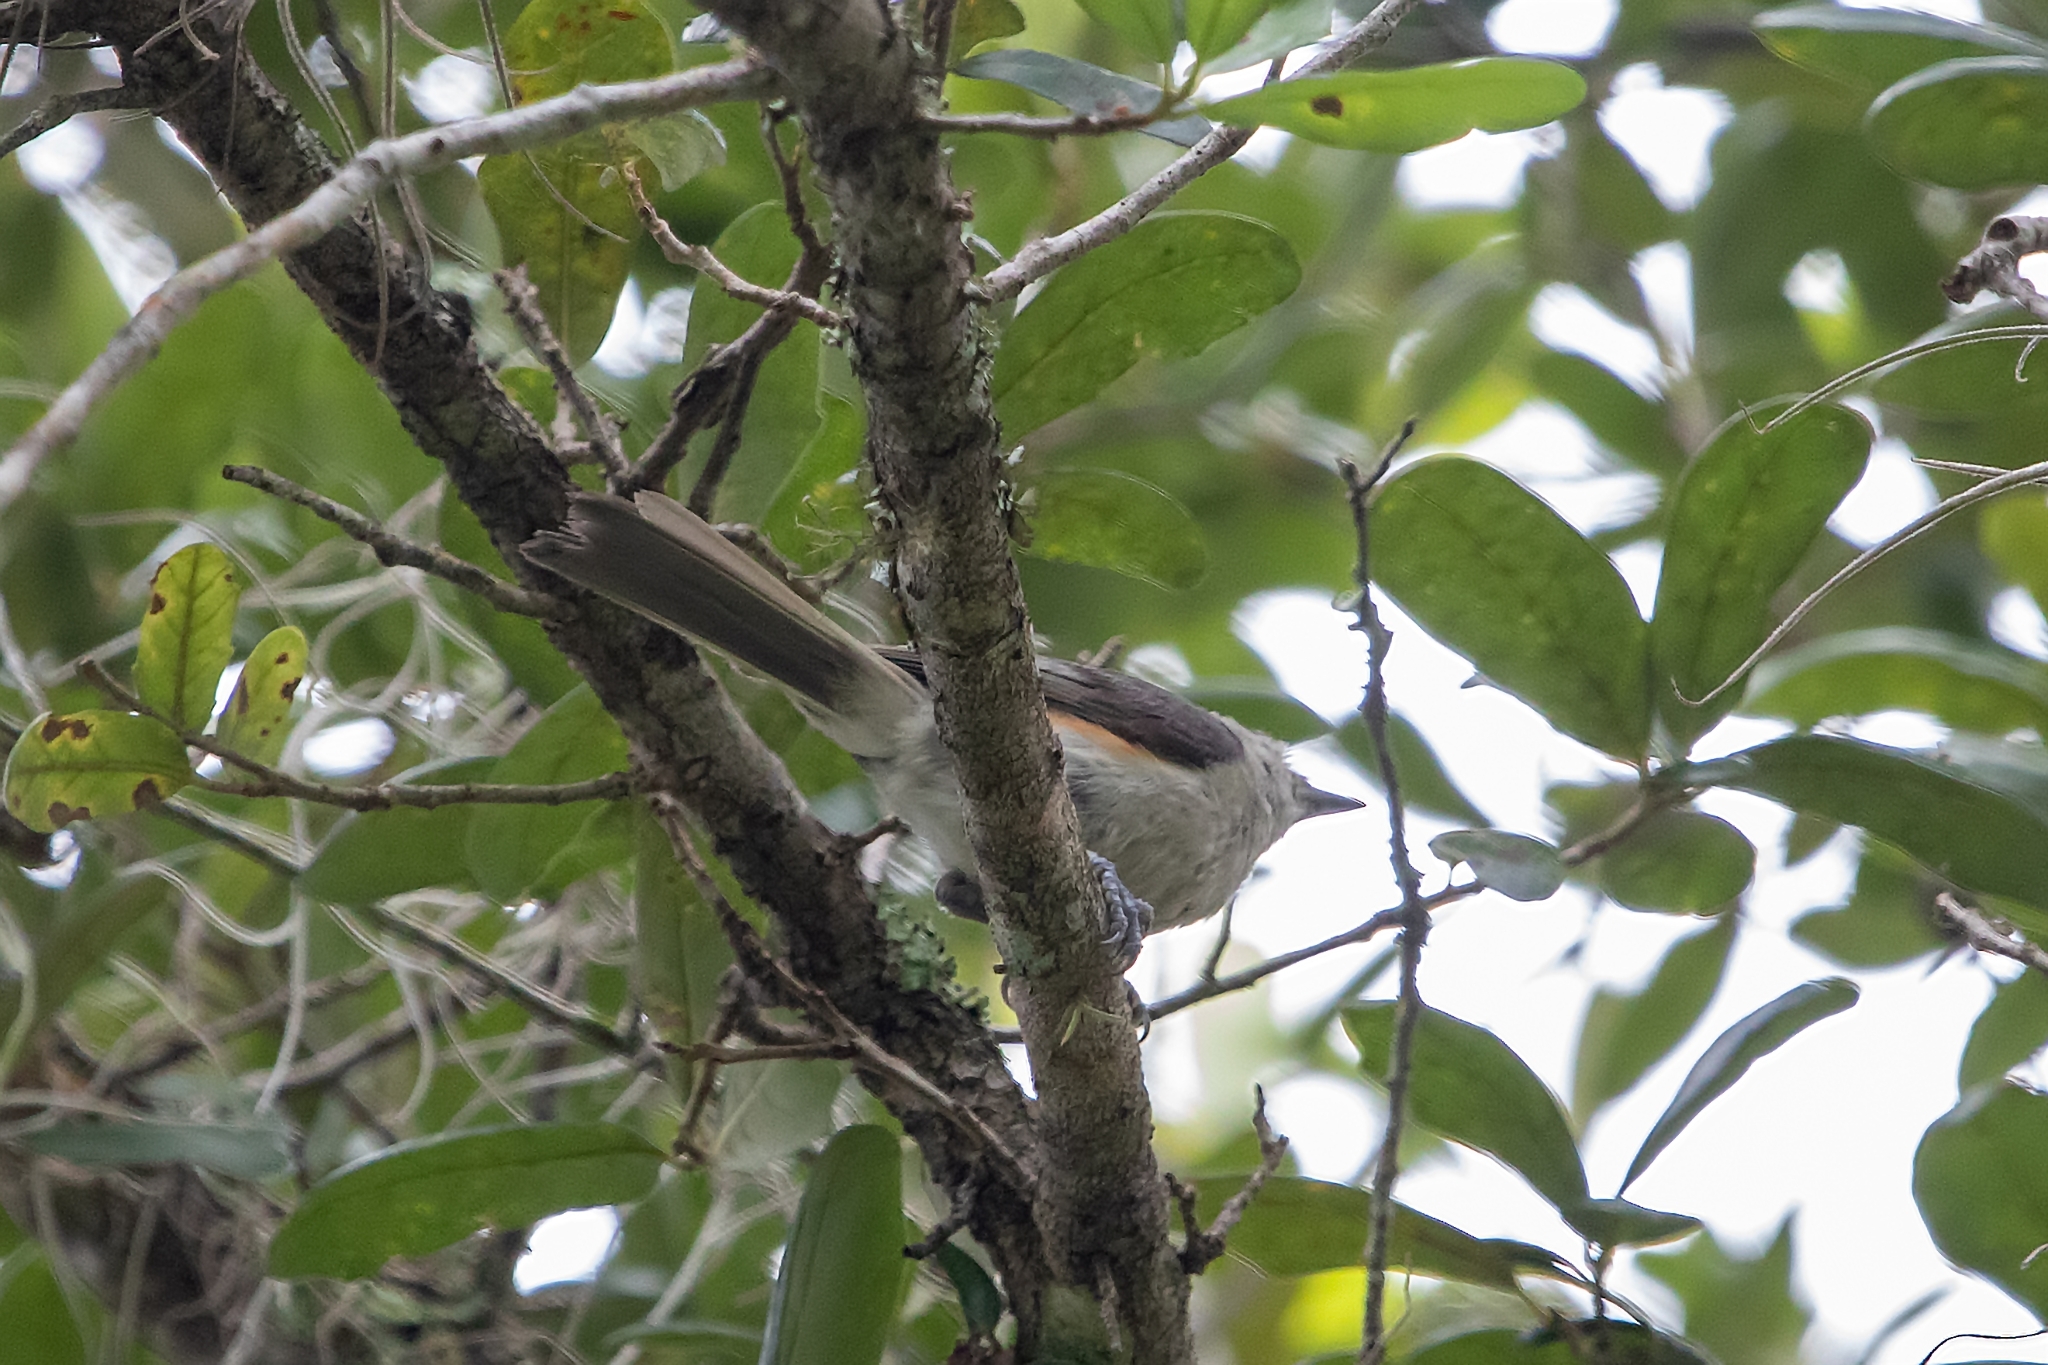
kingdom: Animalia
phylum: Chordata
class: Aves
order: Passeriformes
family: Paridae
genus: Baeolophus
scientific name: Baeolophus bicolor
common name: Tufted titmouse
